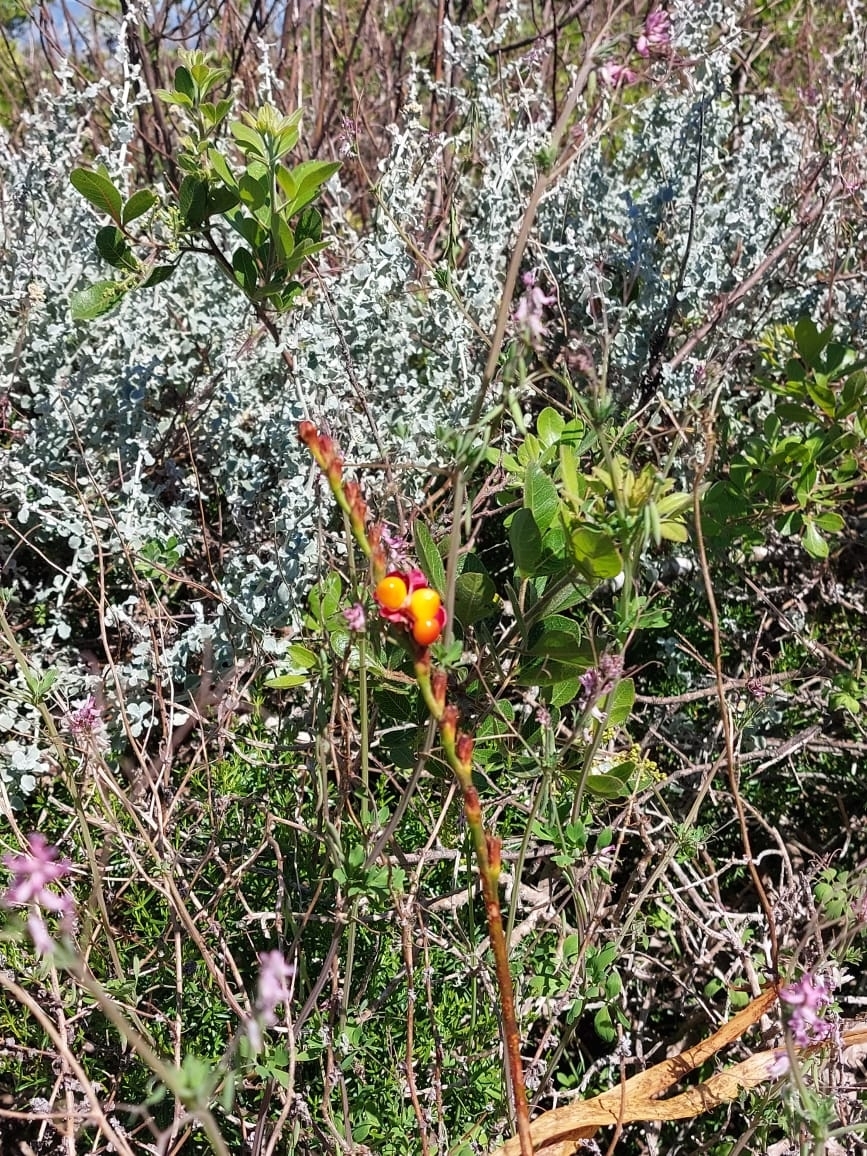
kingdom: Plantae
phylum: Tracheophyta
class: Liliopsida
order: Asparagales
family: Iridaceae
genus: Chasmanthe
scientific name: Chasmanthe aethiopica
